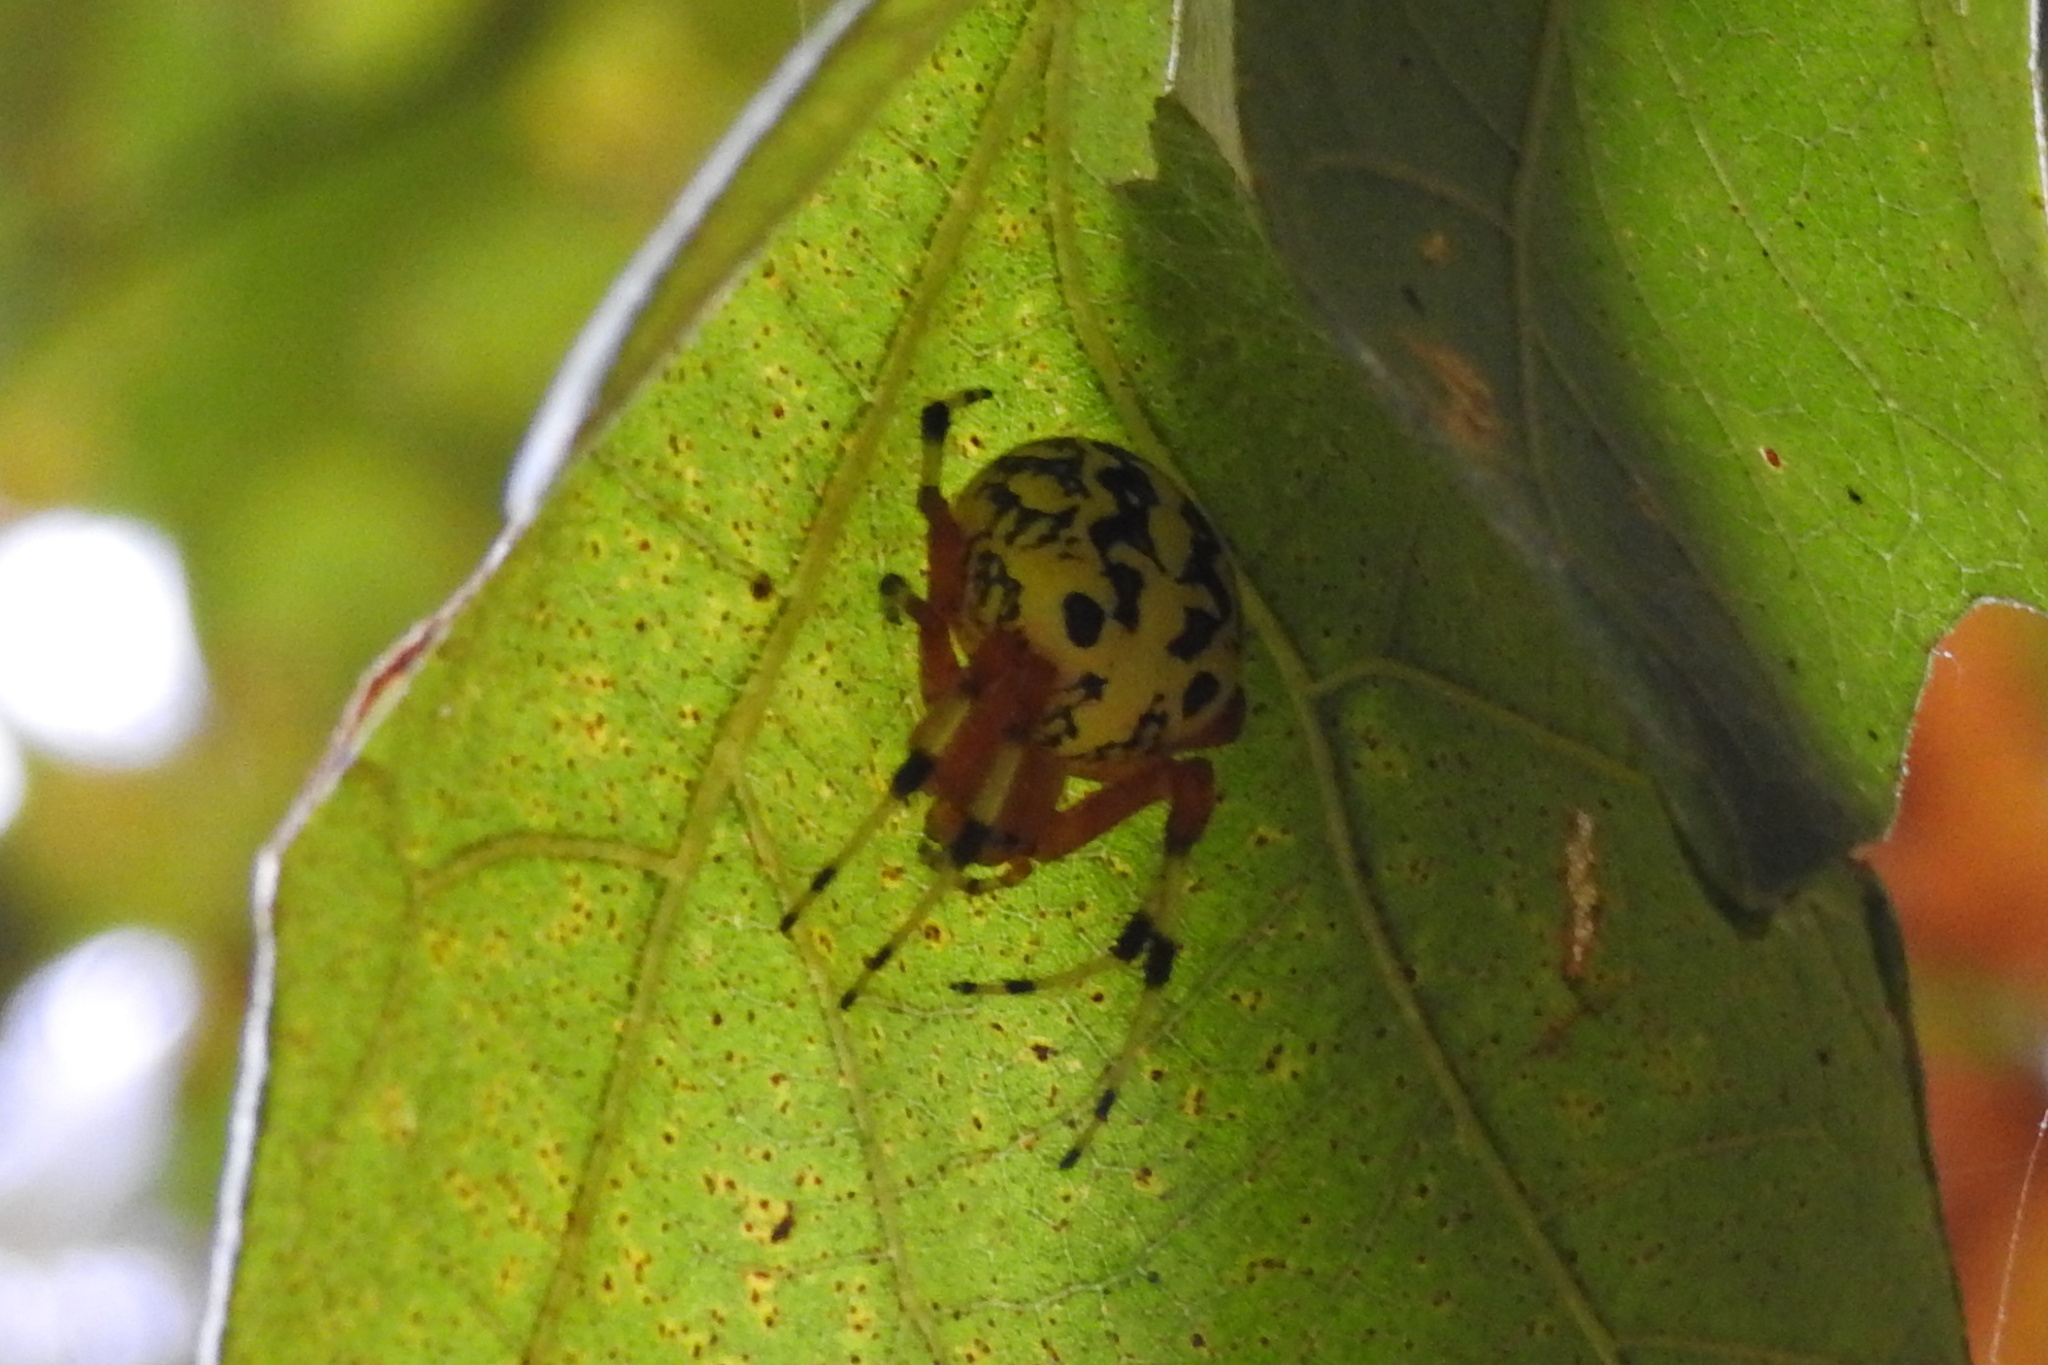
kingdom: Animalia
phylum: Arthropoda
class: Arachnida
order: Araneae
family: Araneidae
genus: Araneus
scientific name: Araneus marmoreus
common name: Marbled orbweaver
